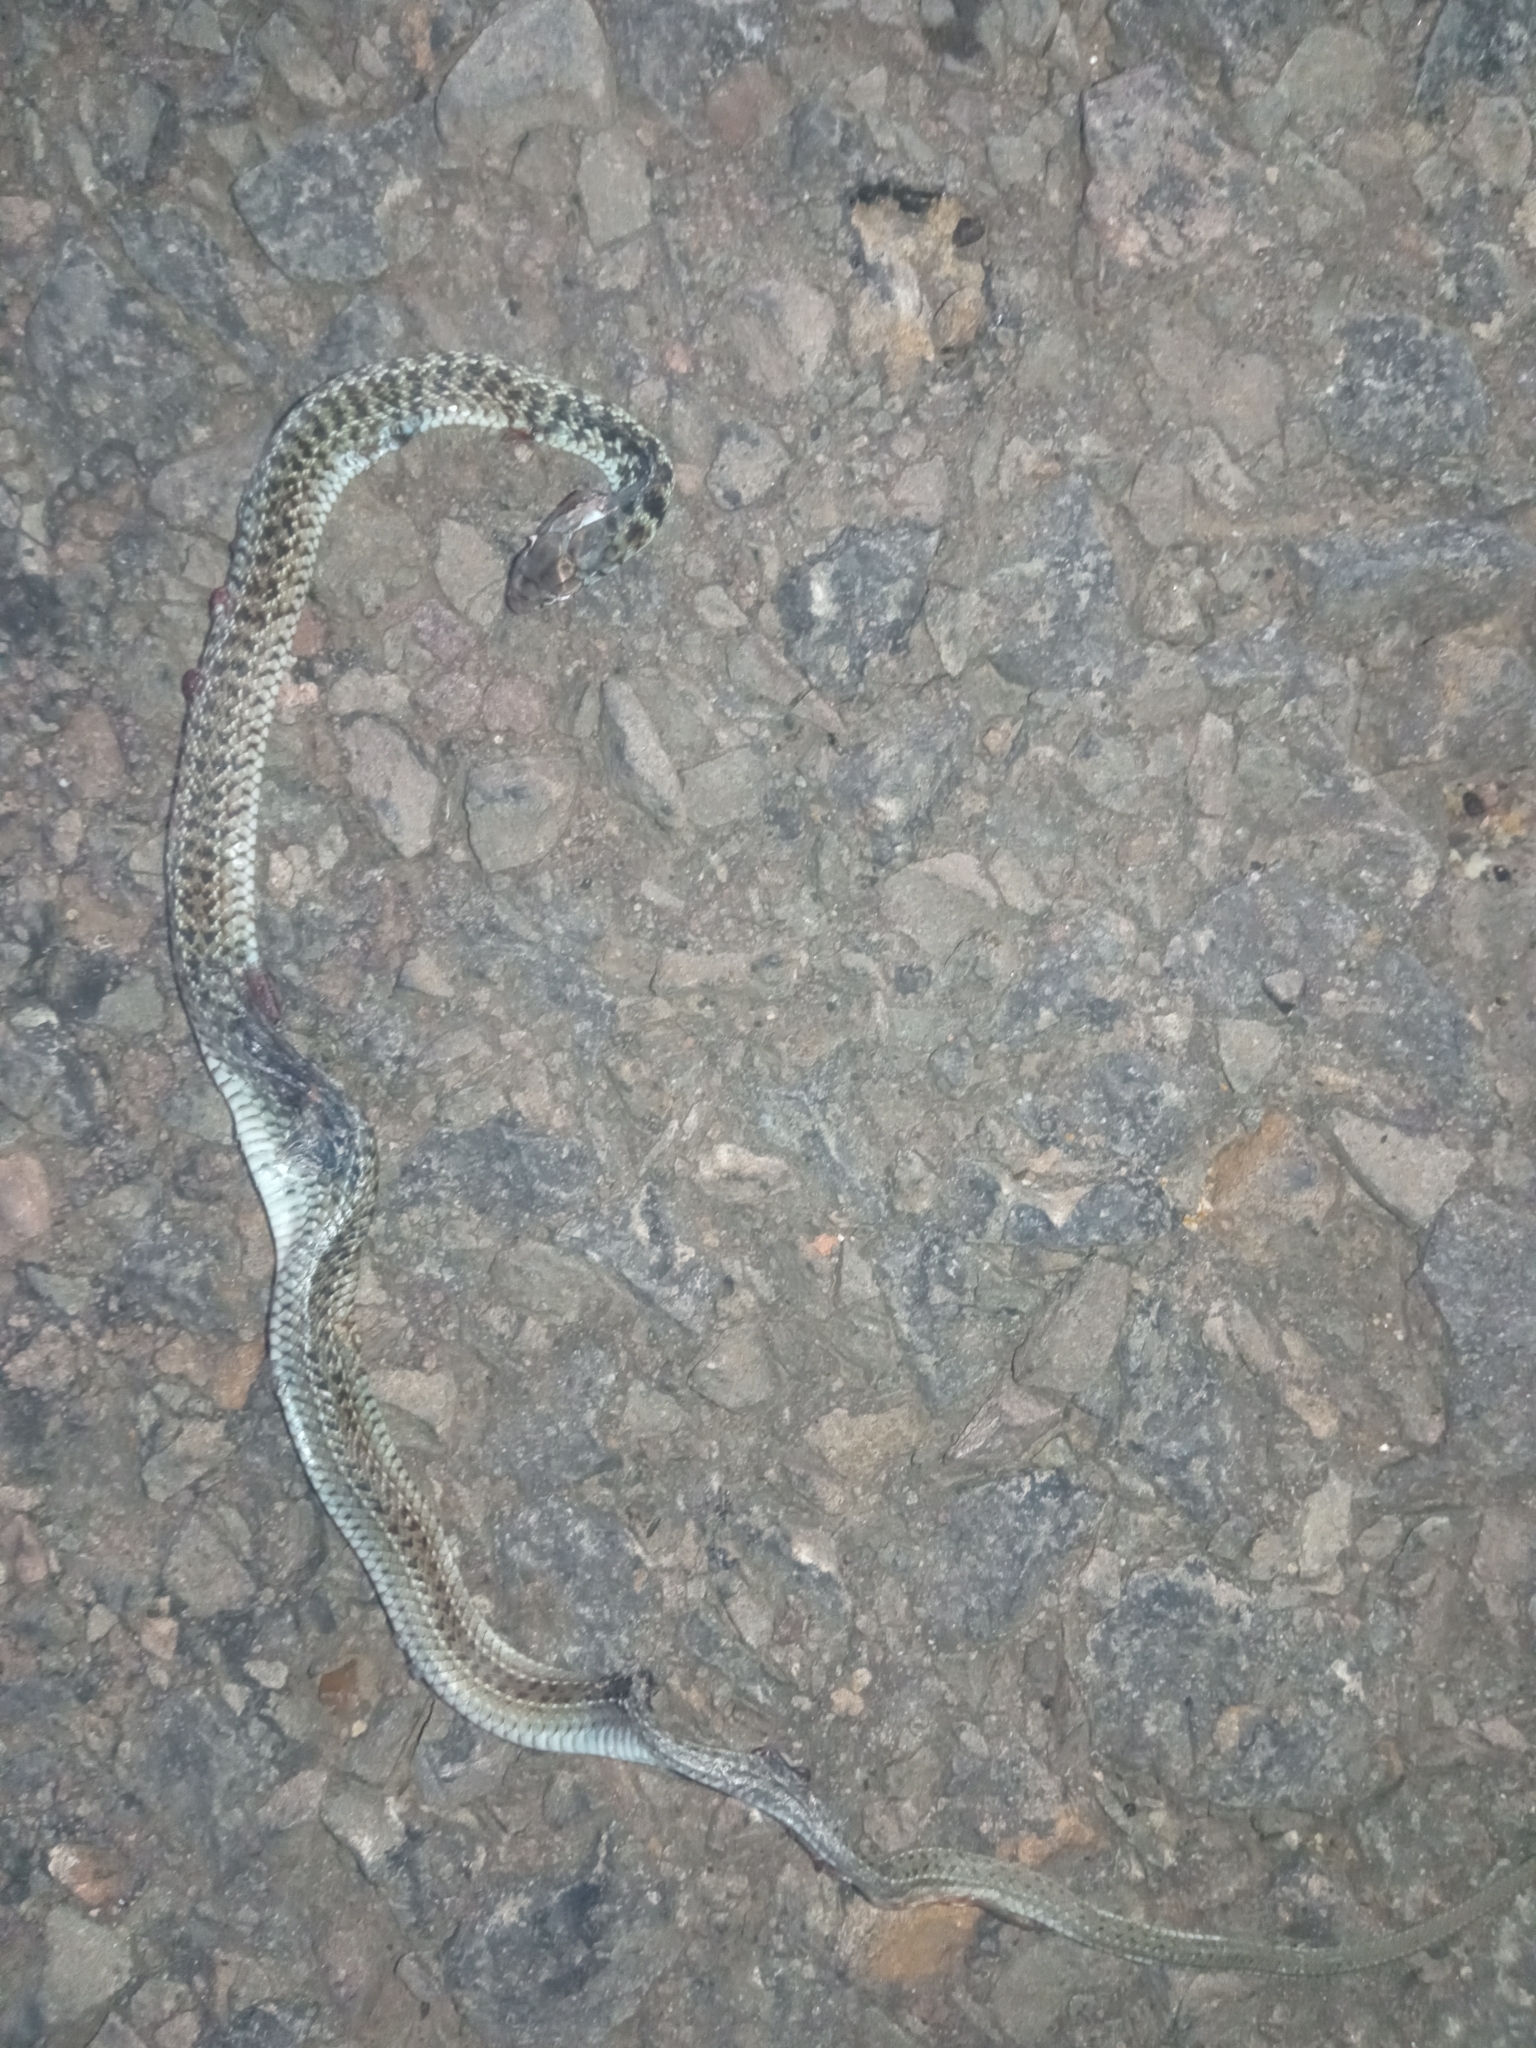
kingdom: Animalia
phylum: Chordata
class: Squamata
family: Colubridae
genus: Philodryas
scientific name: Philodryas patagoniensis
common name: Patagonia green racer
